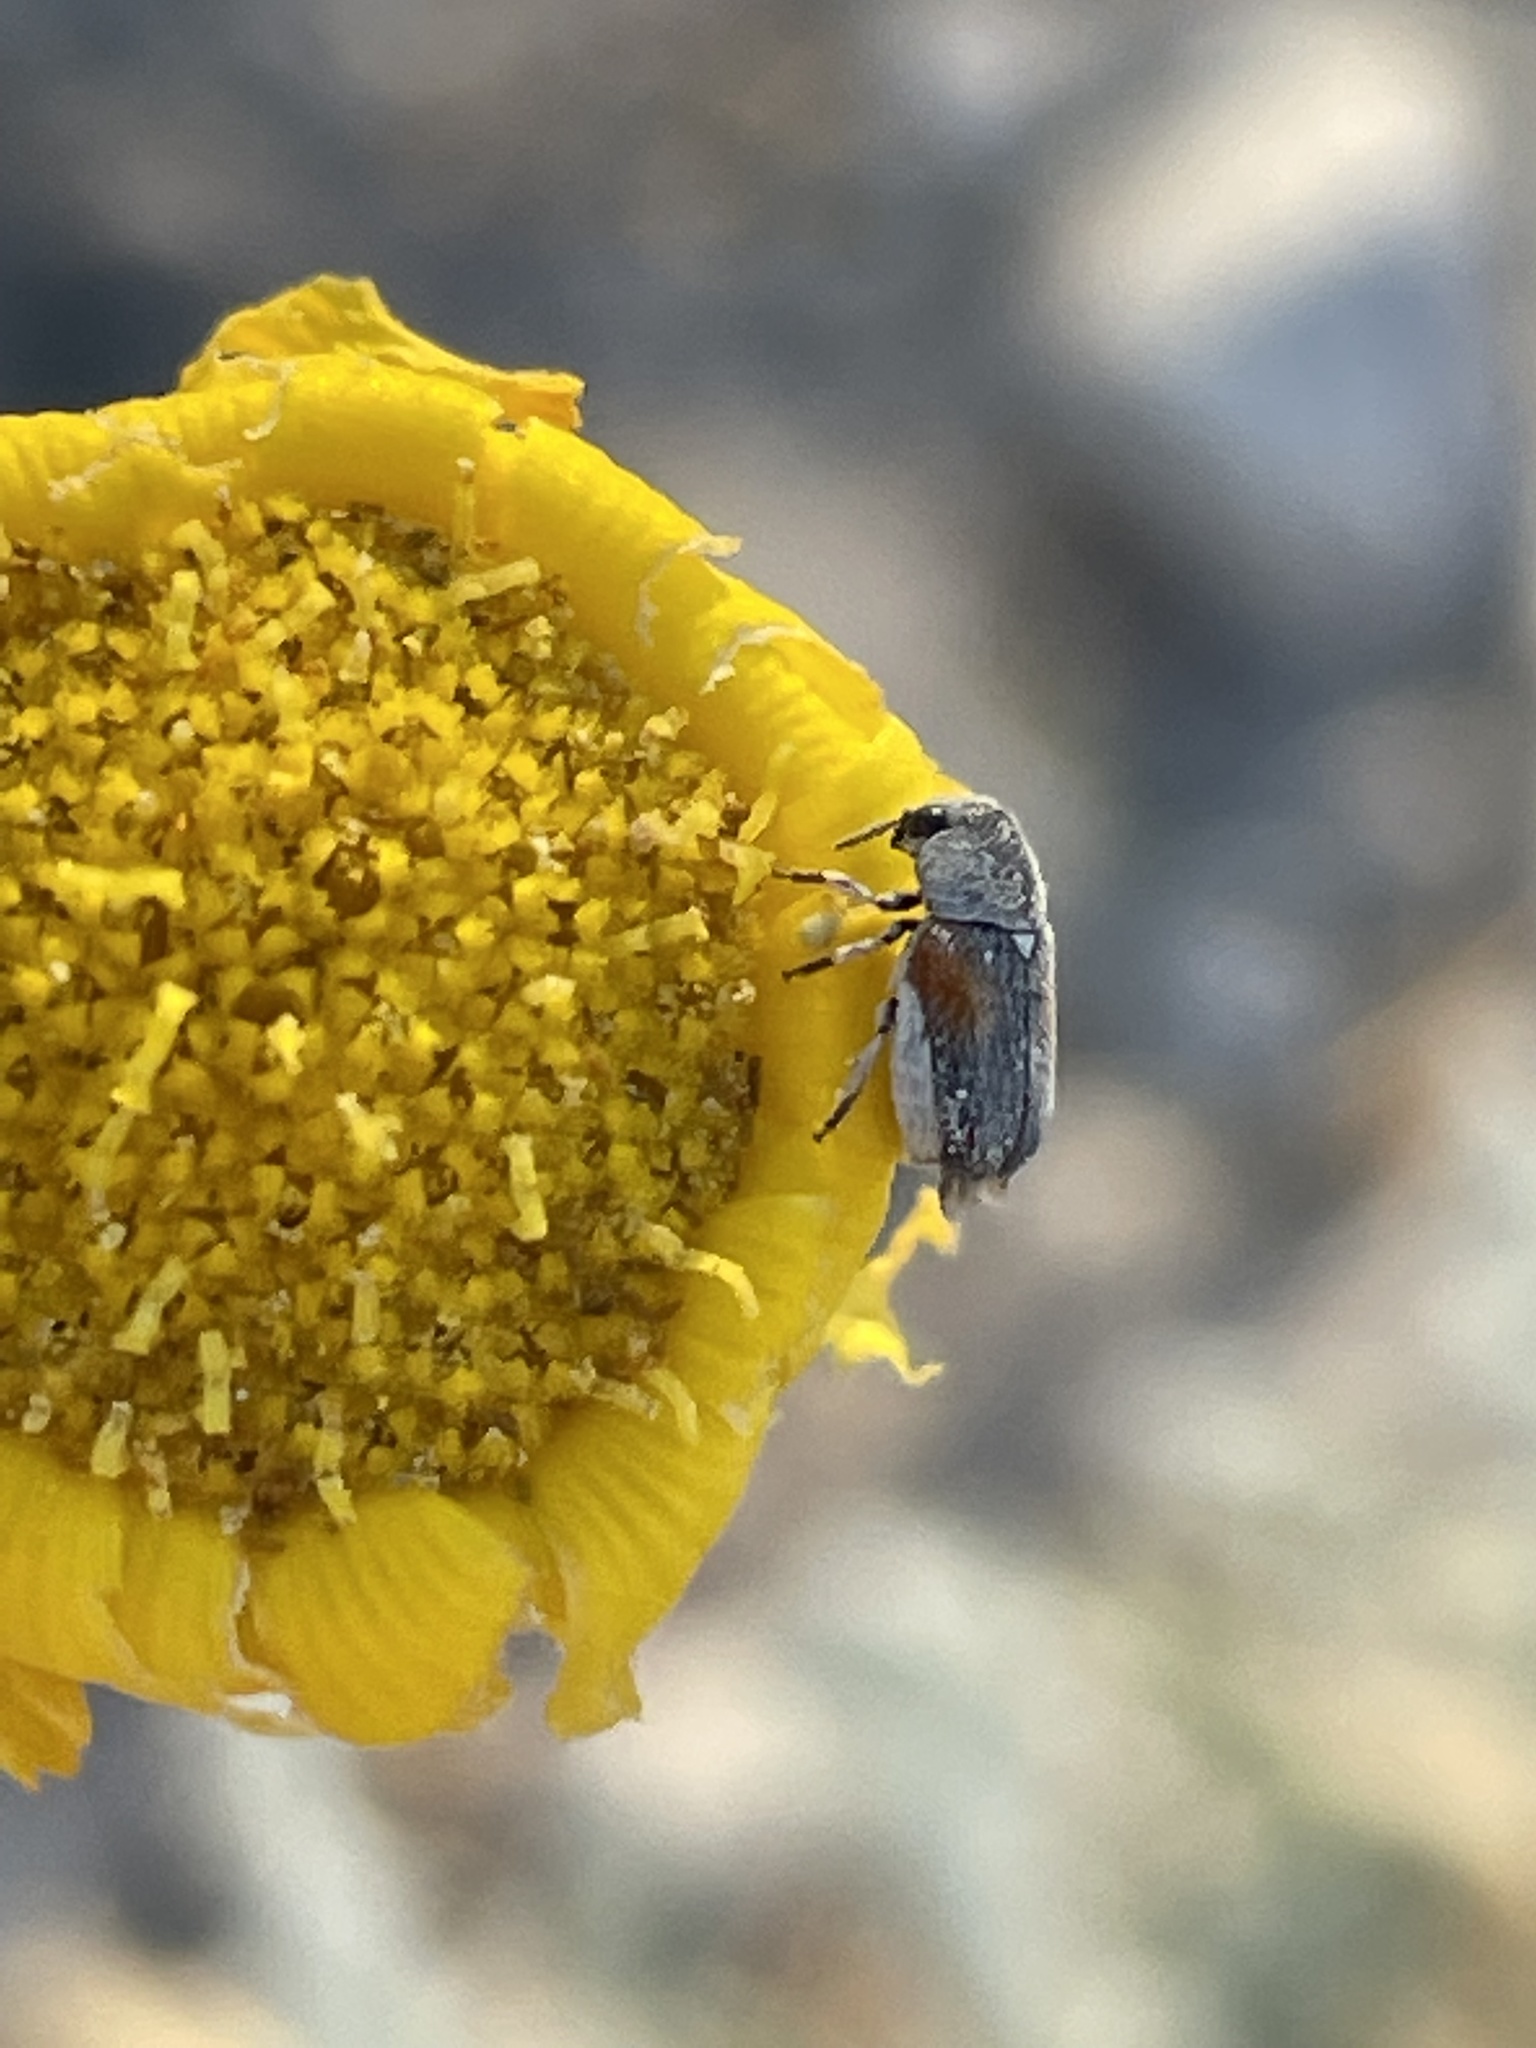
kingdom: Animalia
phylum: Arthropoda
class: Insecta
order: Coleoptera
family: Chrysomelidae
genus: Coleothorpa
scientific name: Coleothorpa axillaris
